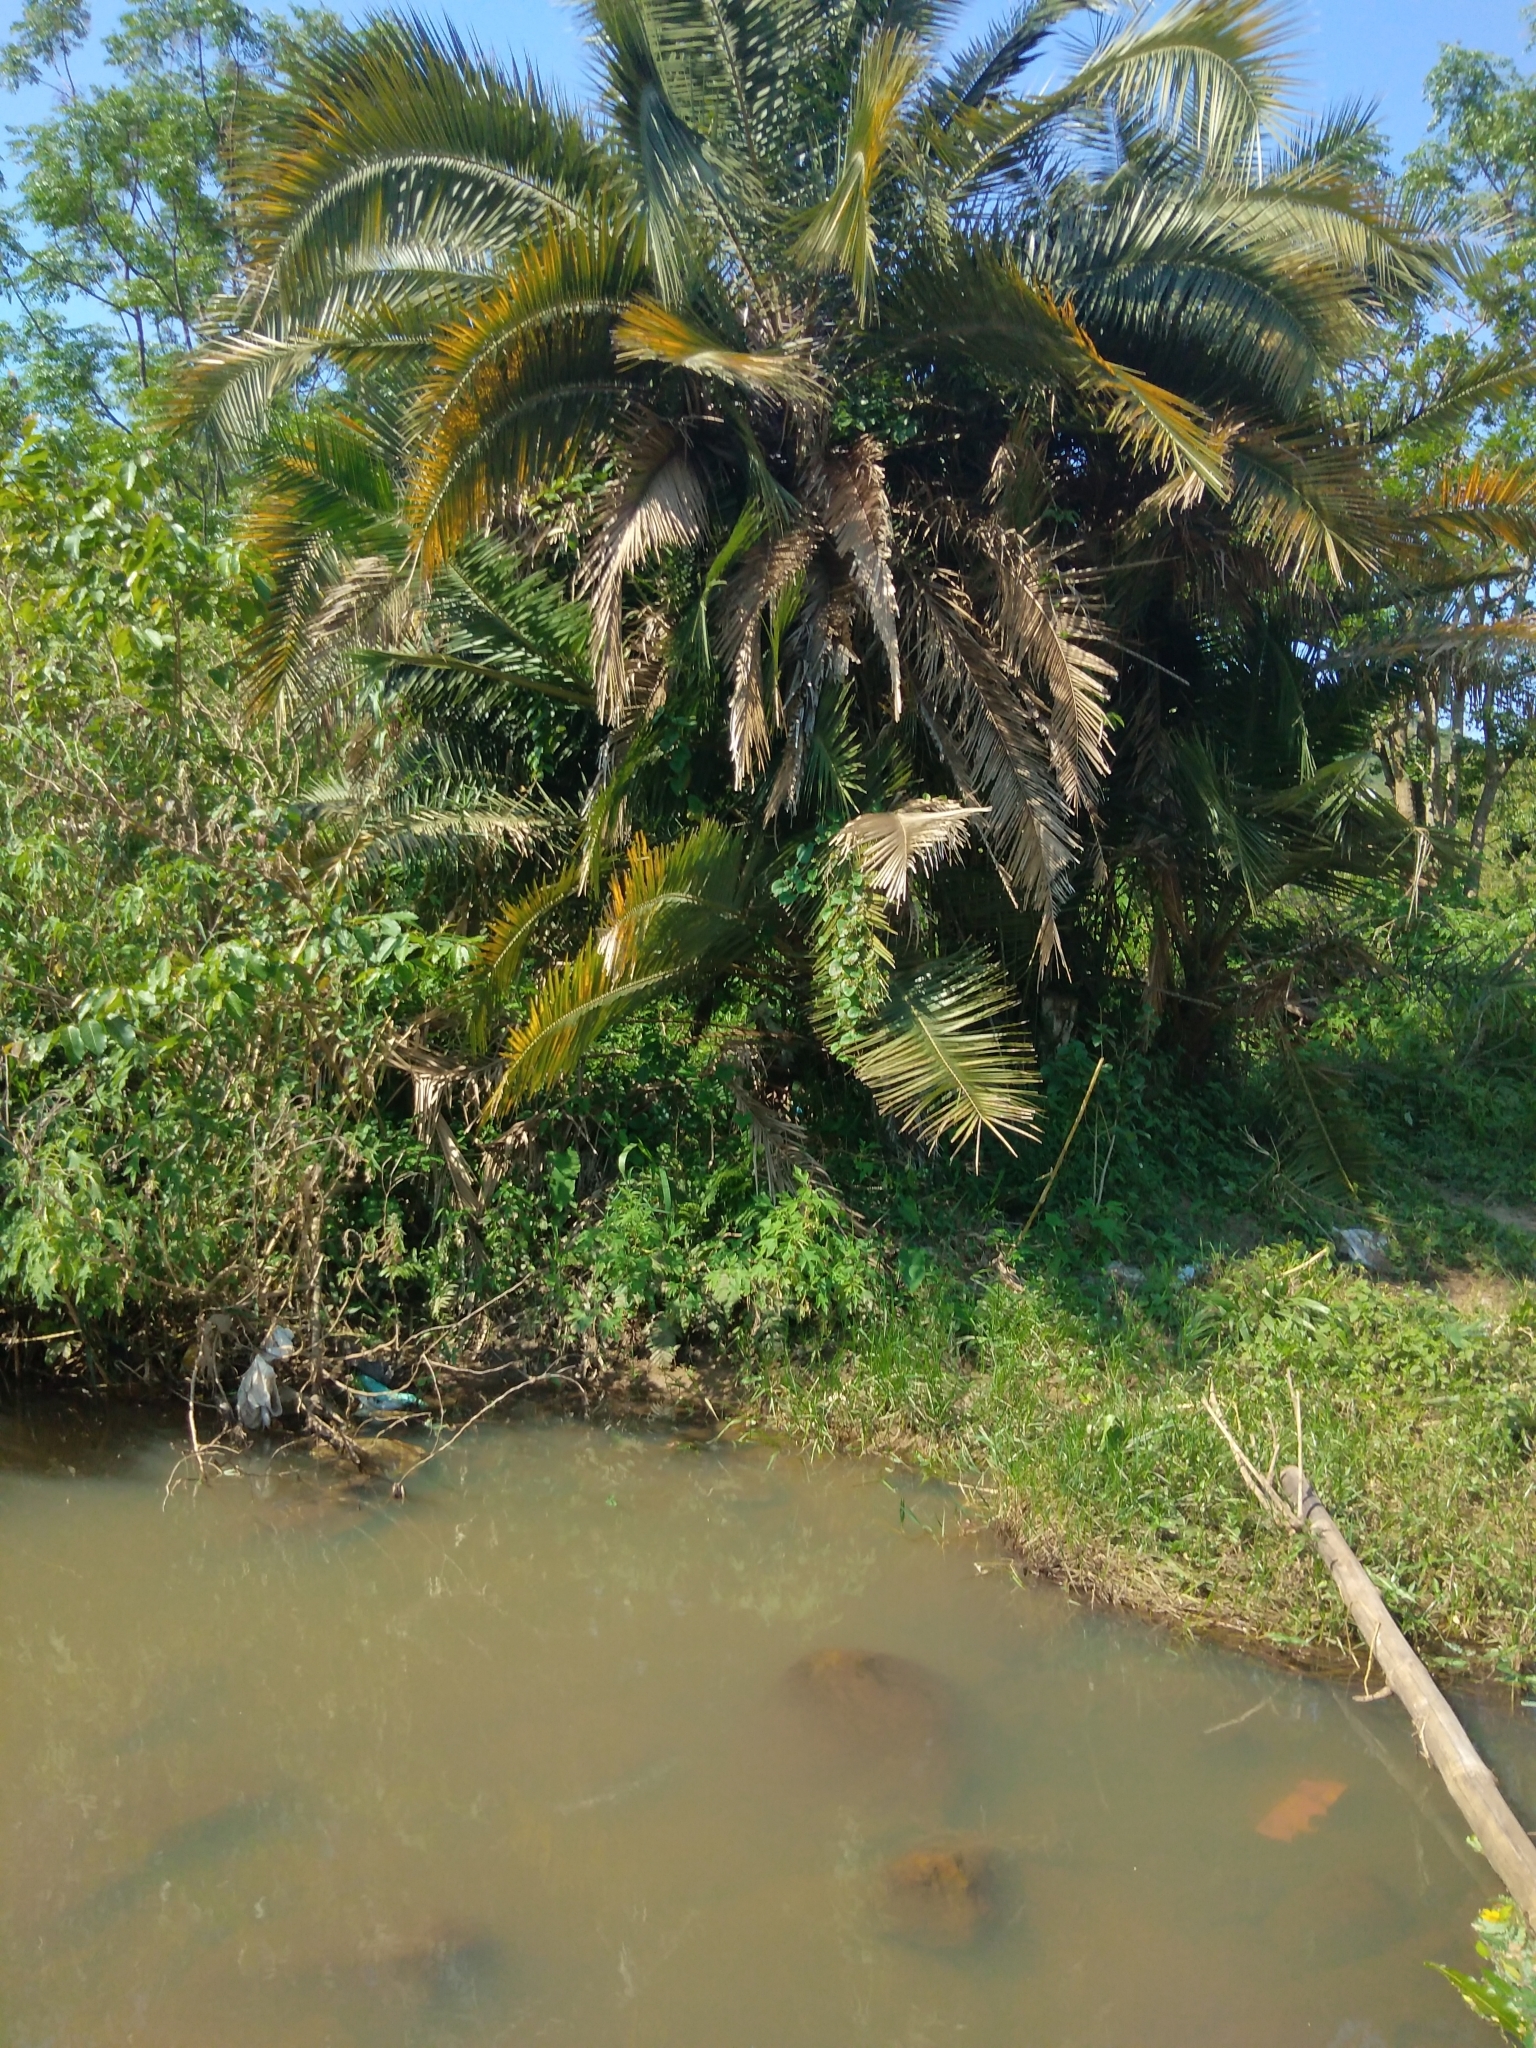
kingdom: Plantae
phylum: Tracheophyta
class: Liliopsida
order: Arecales
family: Arecaceae
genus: Phoenix
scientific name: Phoenix reclinata
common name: Senegal date palm
